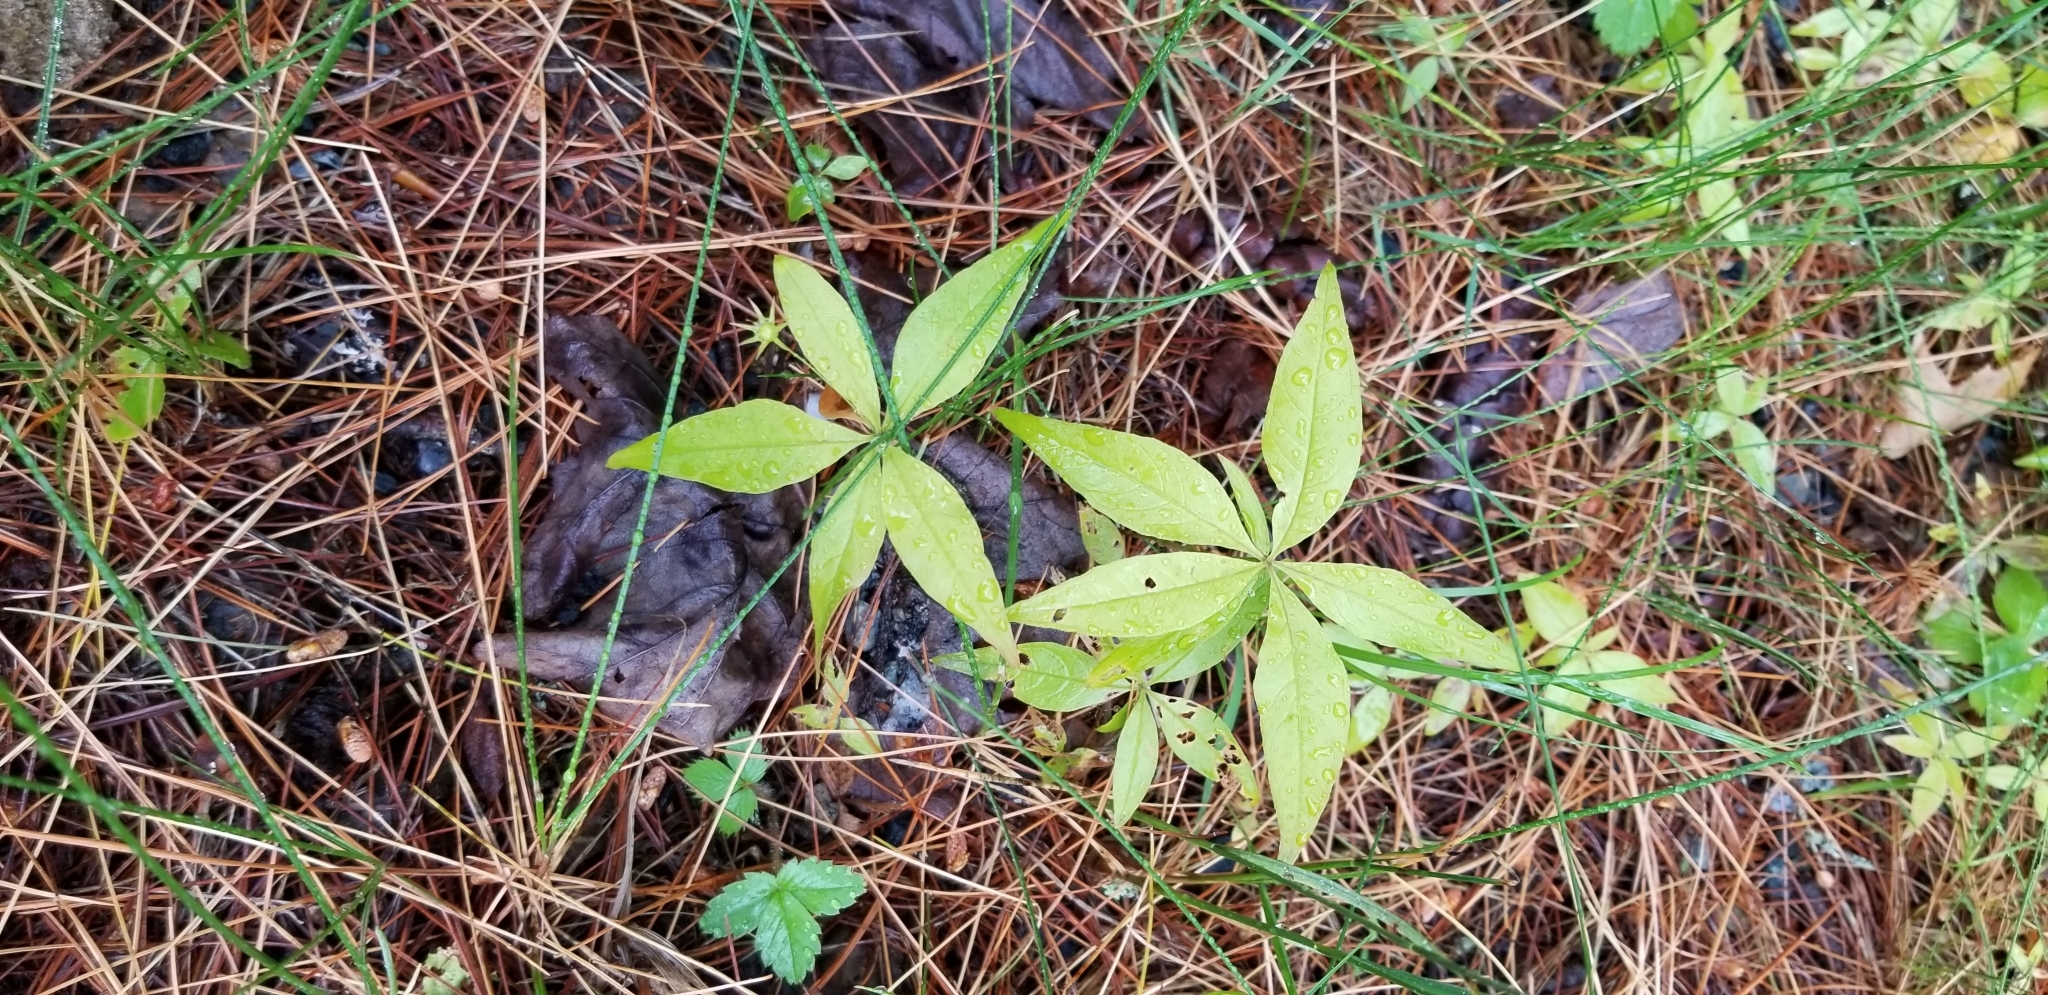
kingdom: Plantae
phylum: Tracheophyta
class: Magnoliopsida
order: Ericales
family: Primulaceae
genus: Lysimachia
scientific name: Lysimachia borealis
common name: American starflower
